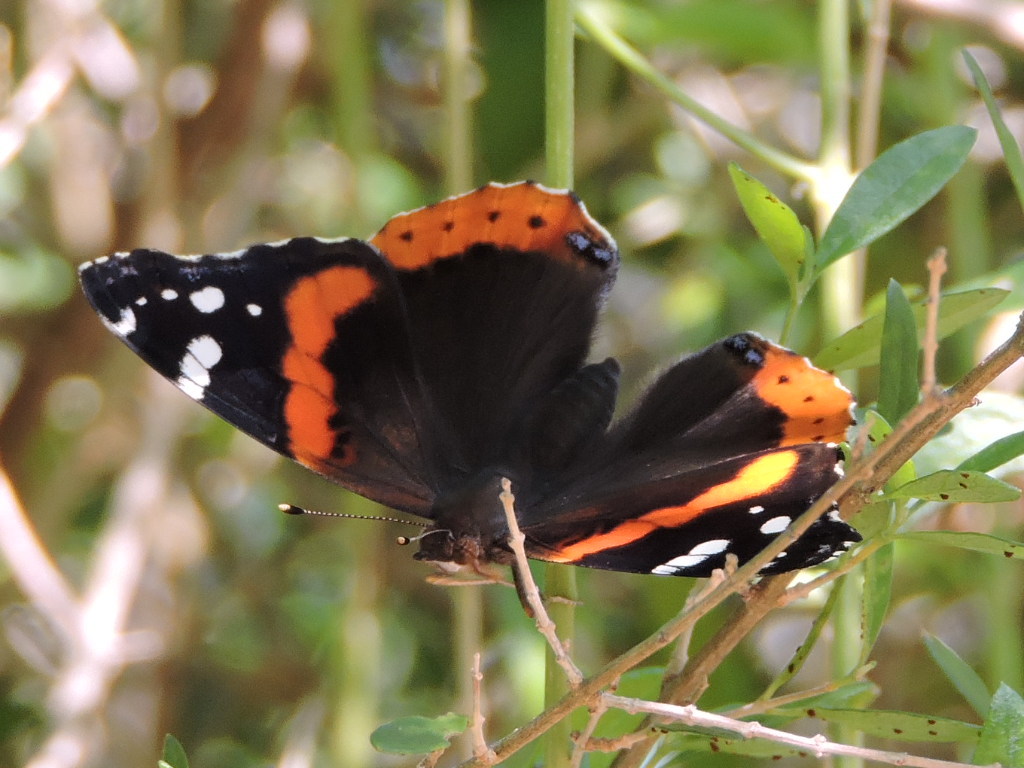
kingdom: Animalia
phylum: Arthropoda
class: Insecta
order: Lepidoptera
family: Nymphalidae
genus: Vanessa
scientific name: Vanessa atalanta
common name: Red admiral
